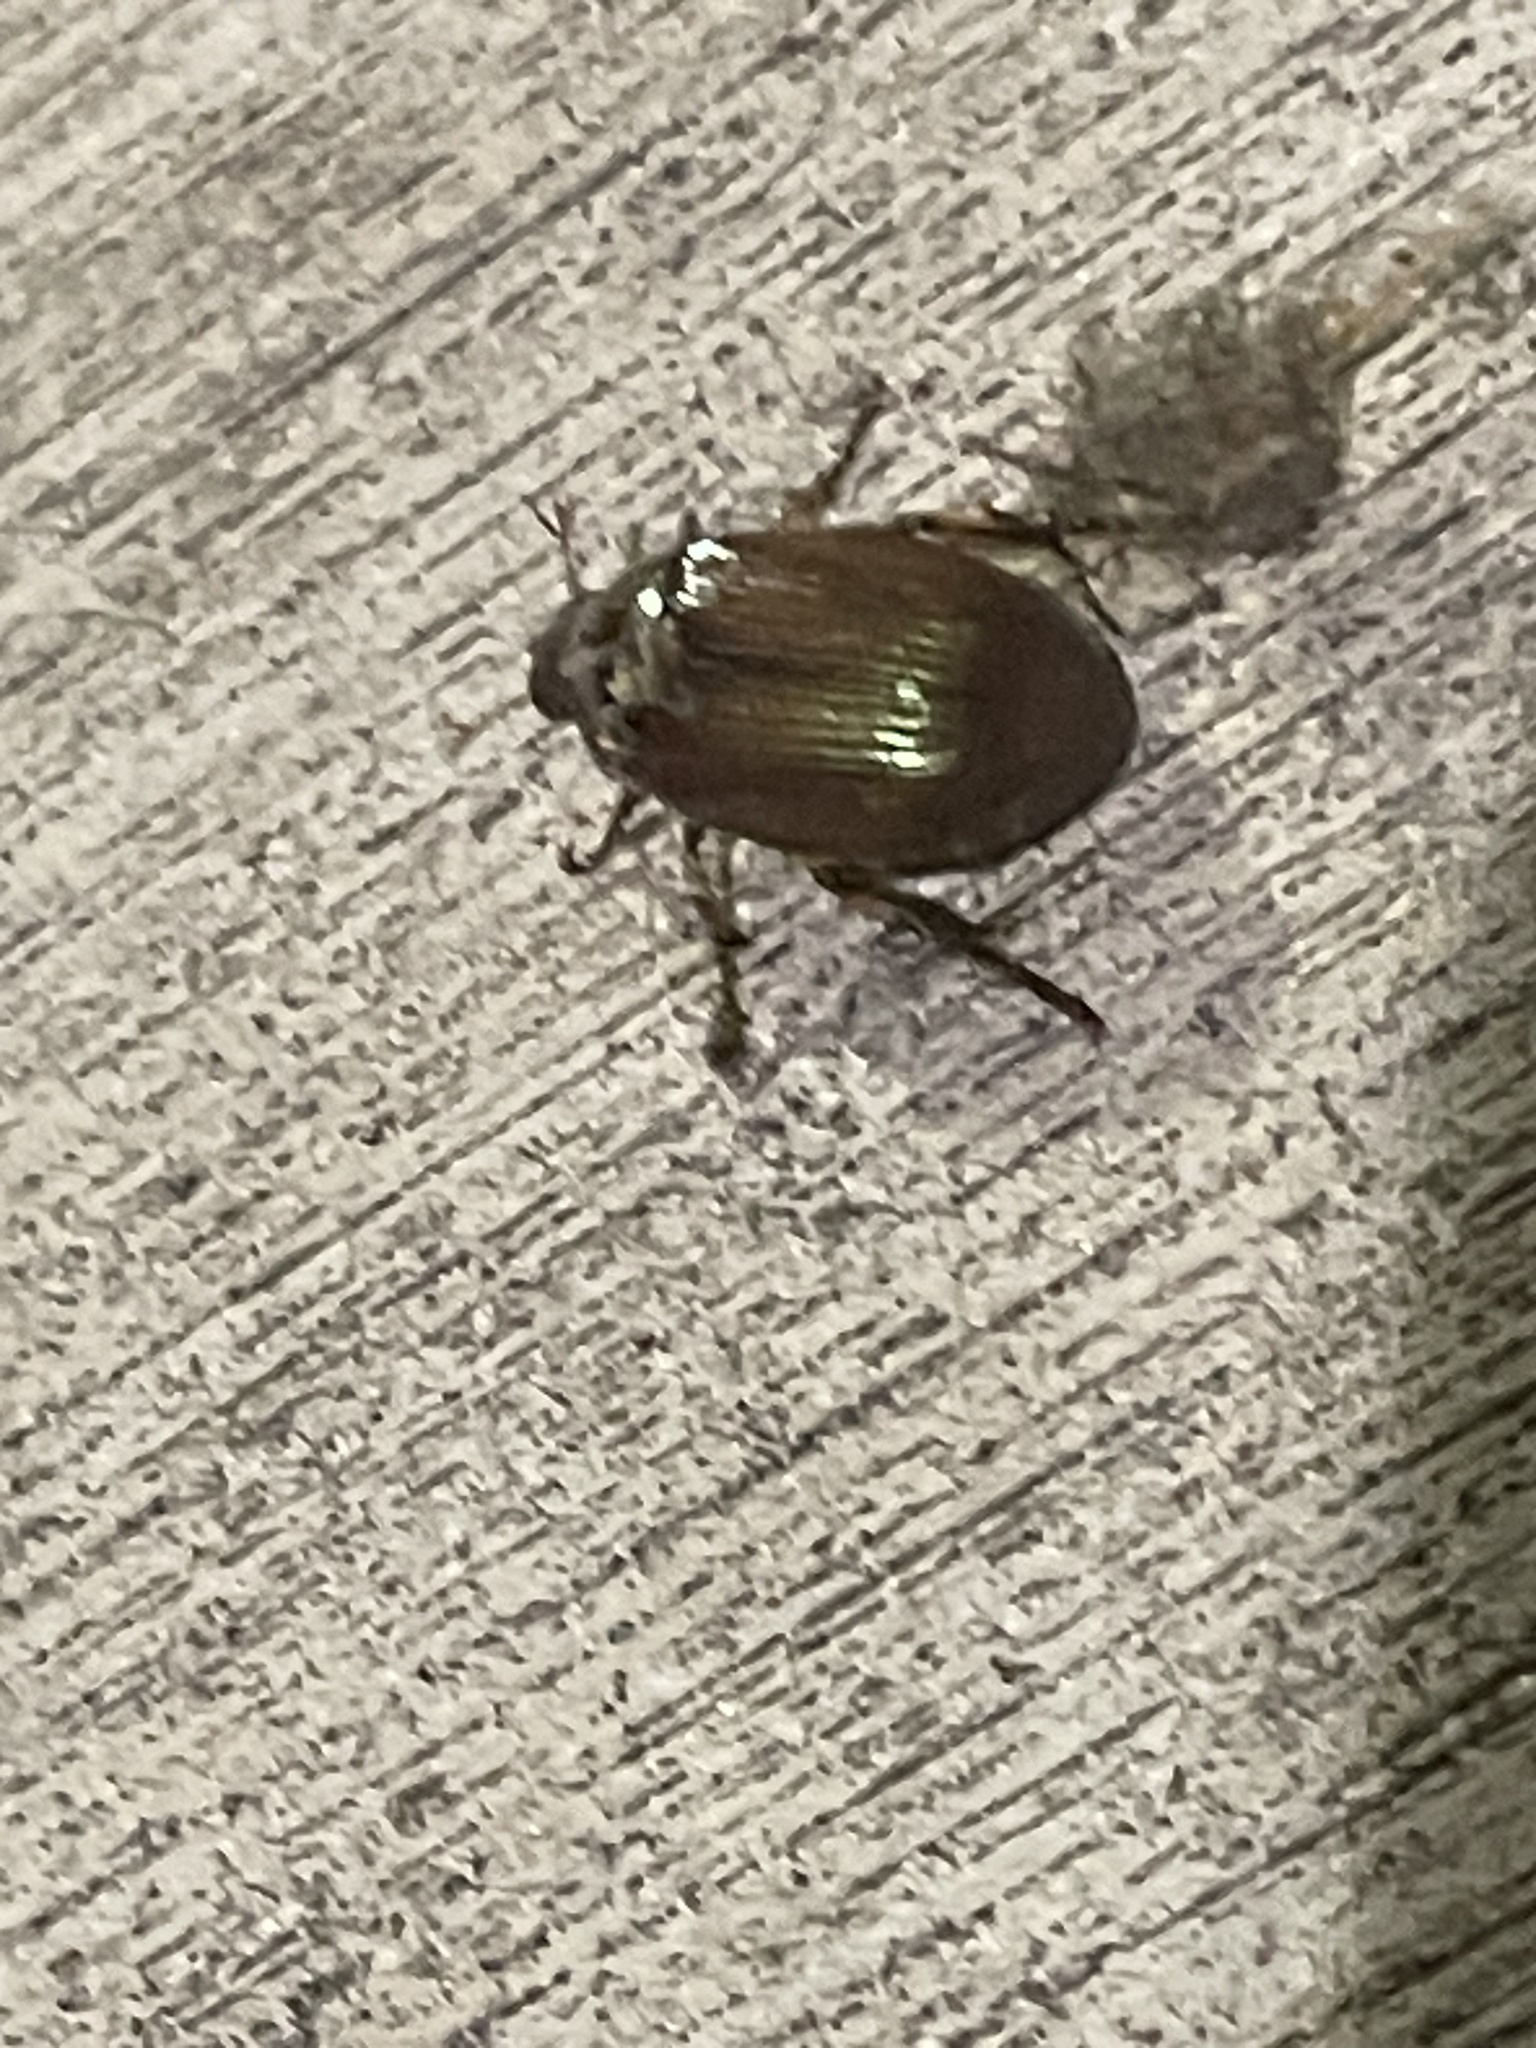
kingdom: Animalia
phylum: Arthropoda
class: Insecta
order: Coleoptera
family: Scarabaeidae
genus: Callistethus
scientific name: Callistethus marginatus
